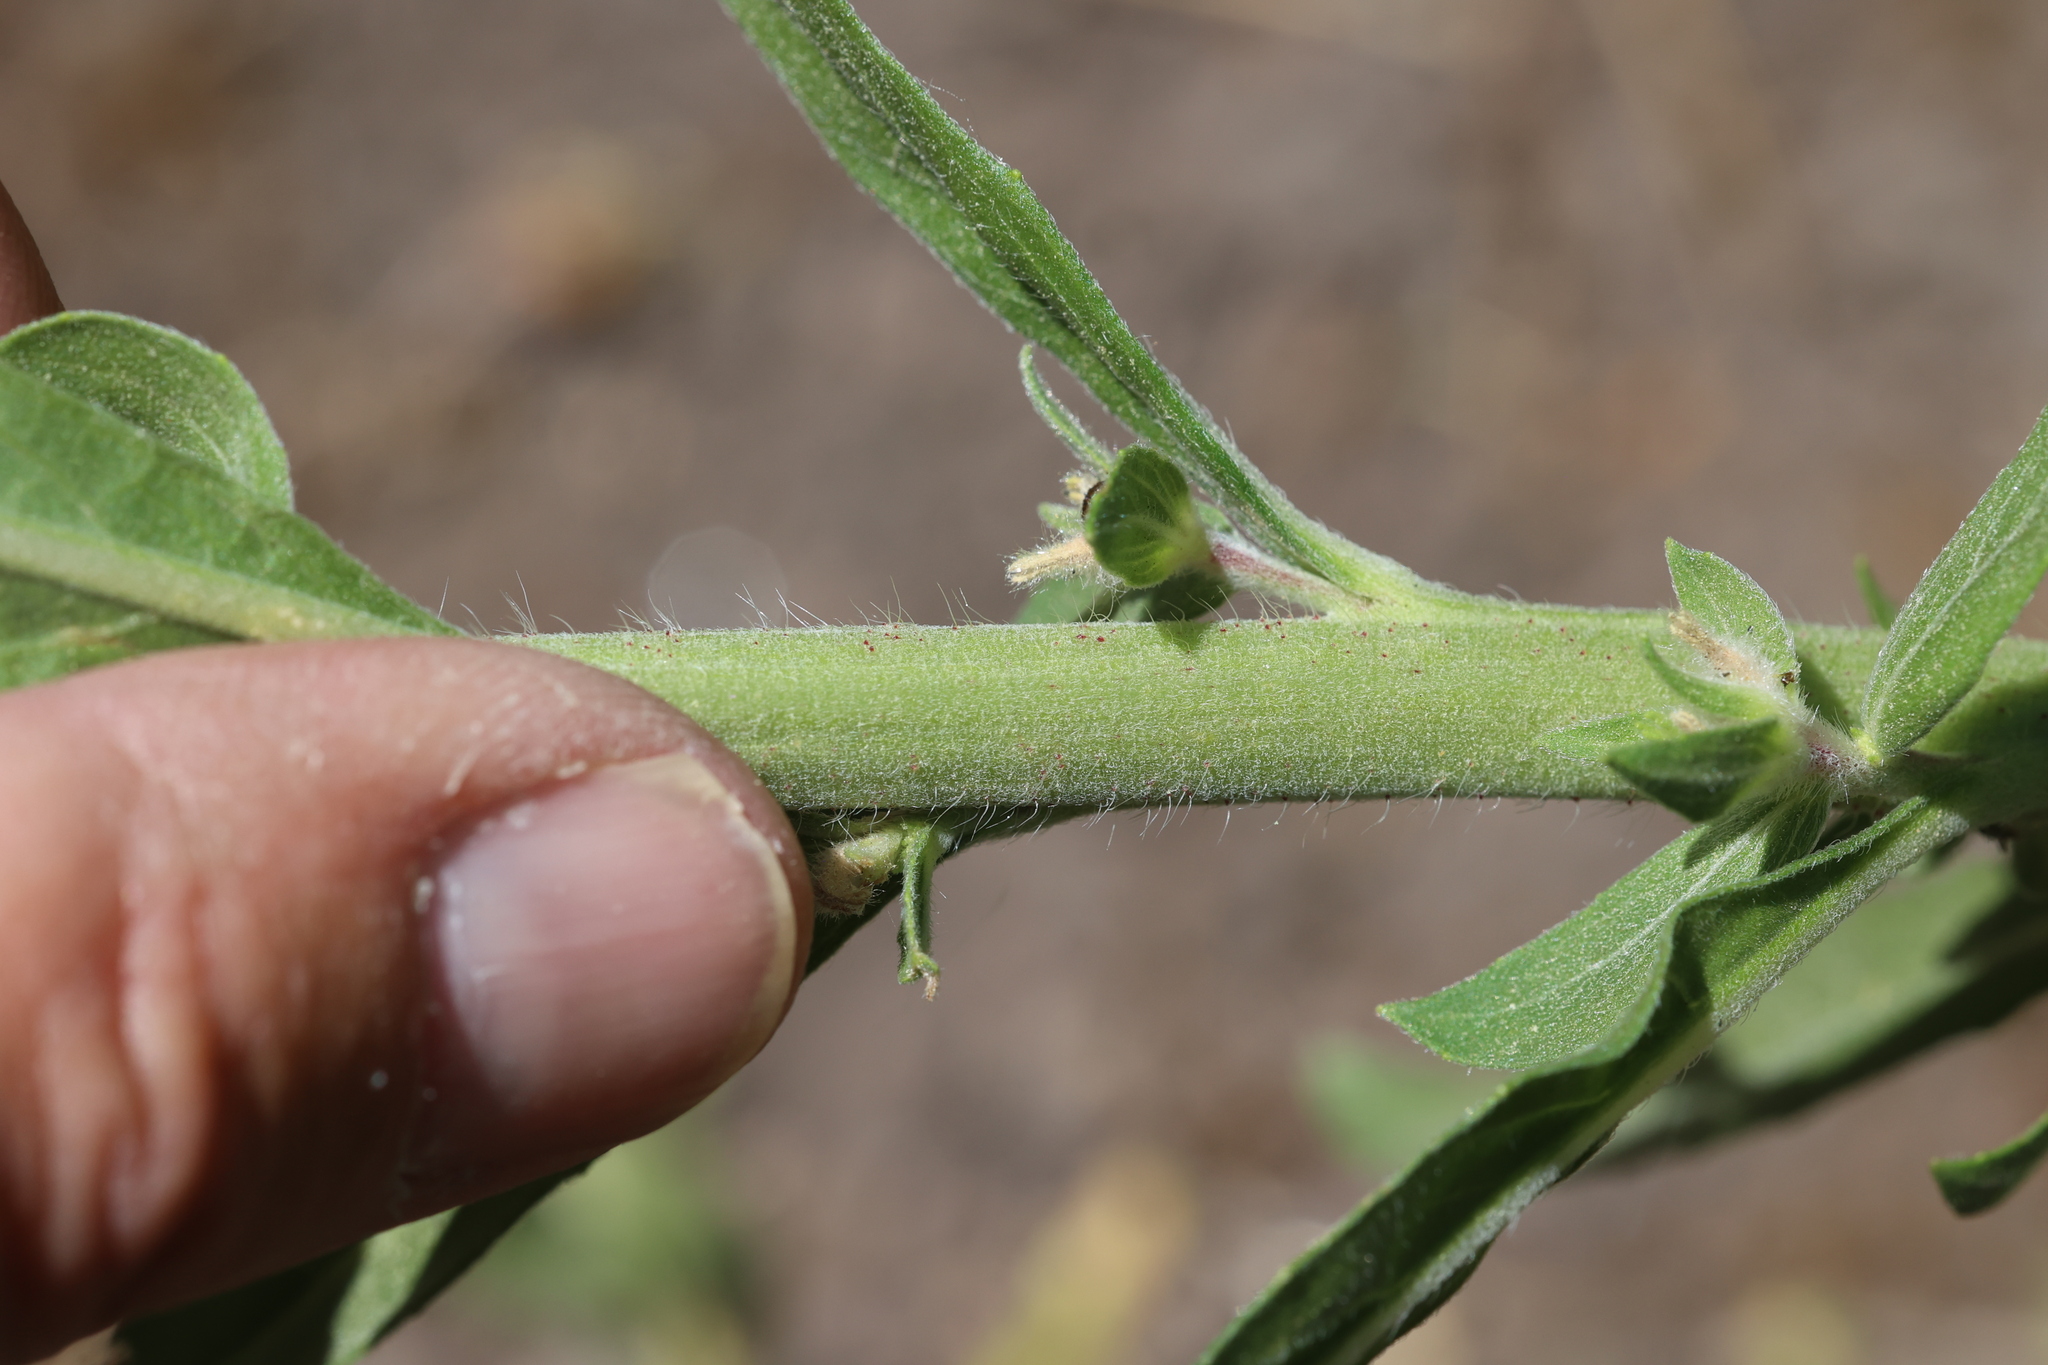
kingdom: Plantae
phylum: Tracheophyta
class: Magnoliopsida
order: Myrtales
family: Onagraceae
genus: Oenothera
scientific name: Oenothera elata
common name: Hooker's evening-primrose
